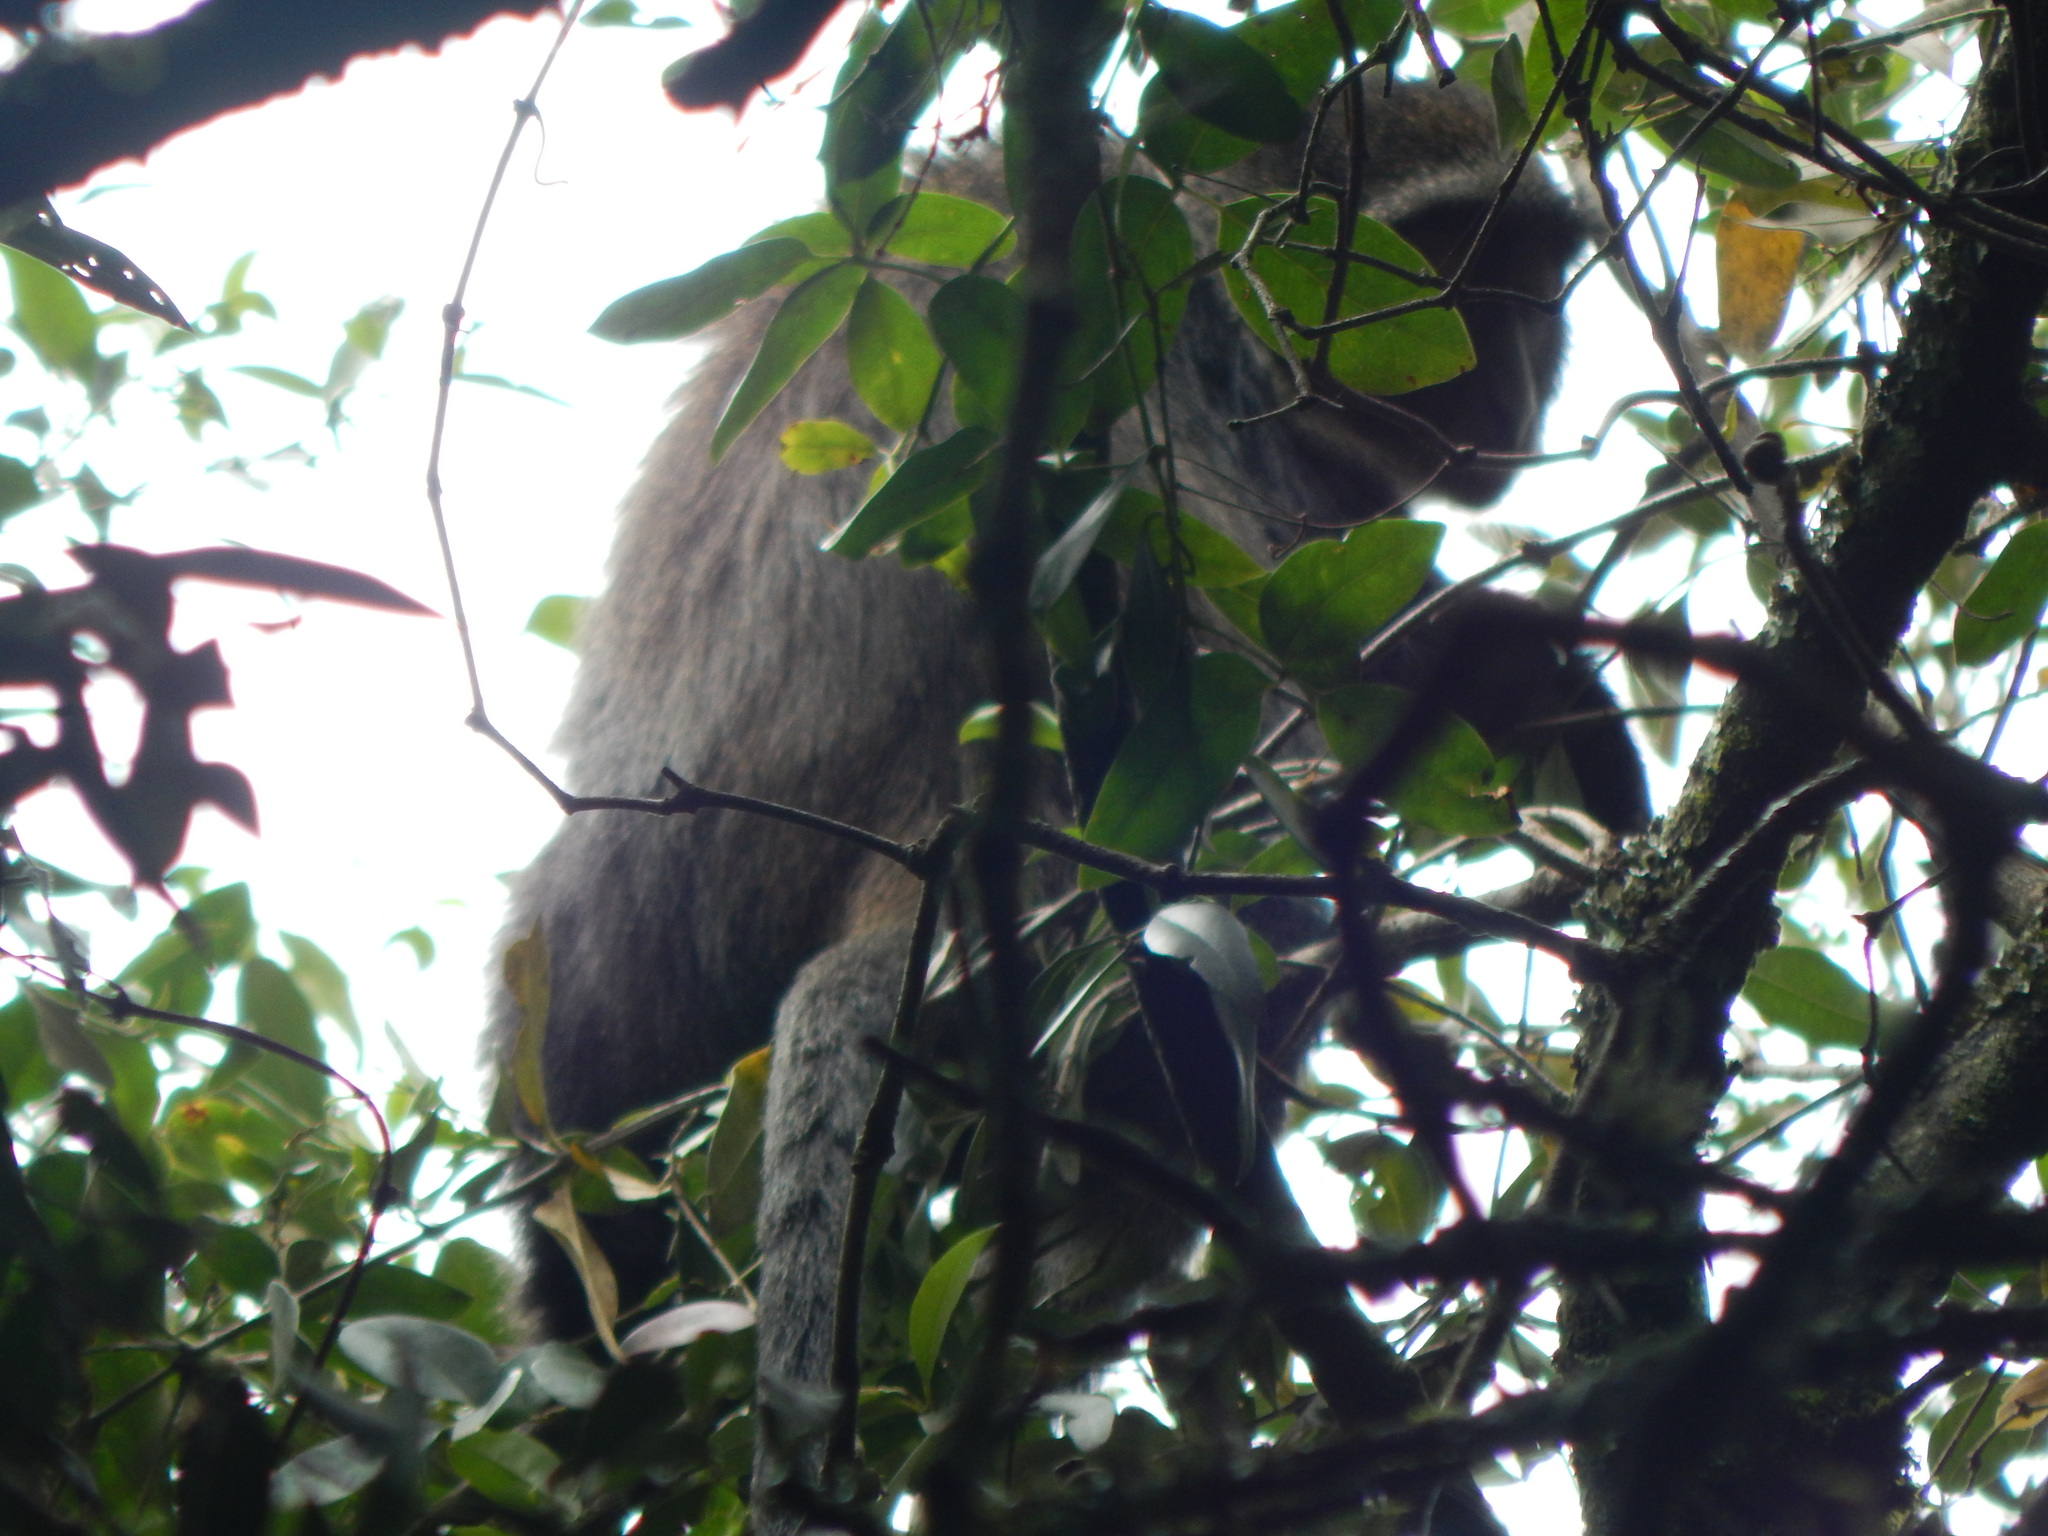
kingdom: Animalia
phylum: Chordata
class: Mammalia
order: Primates
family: Cercopithecidae
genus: Cercopithecus
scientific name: Cercopithecus mitis
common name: Blue monkey
